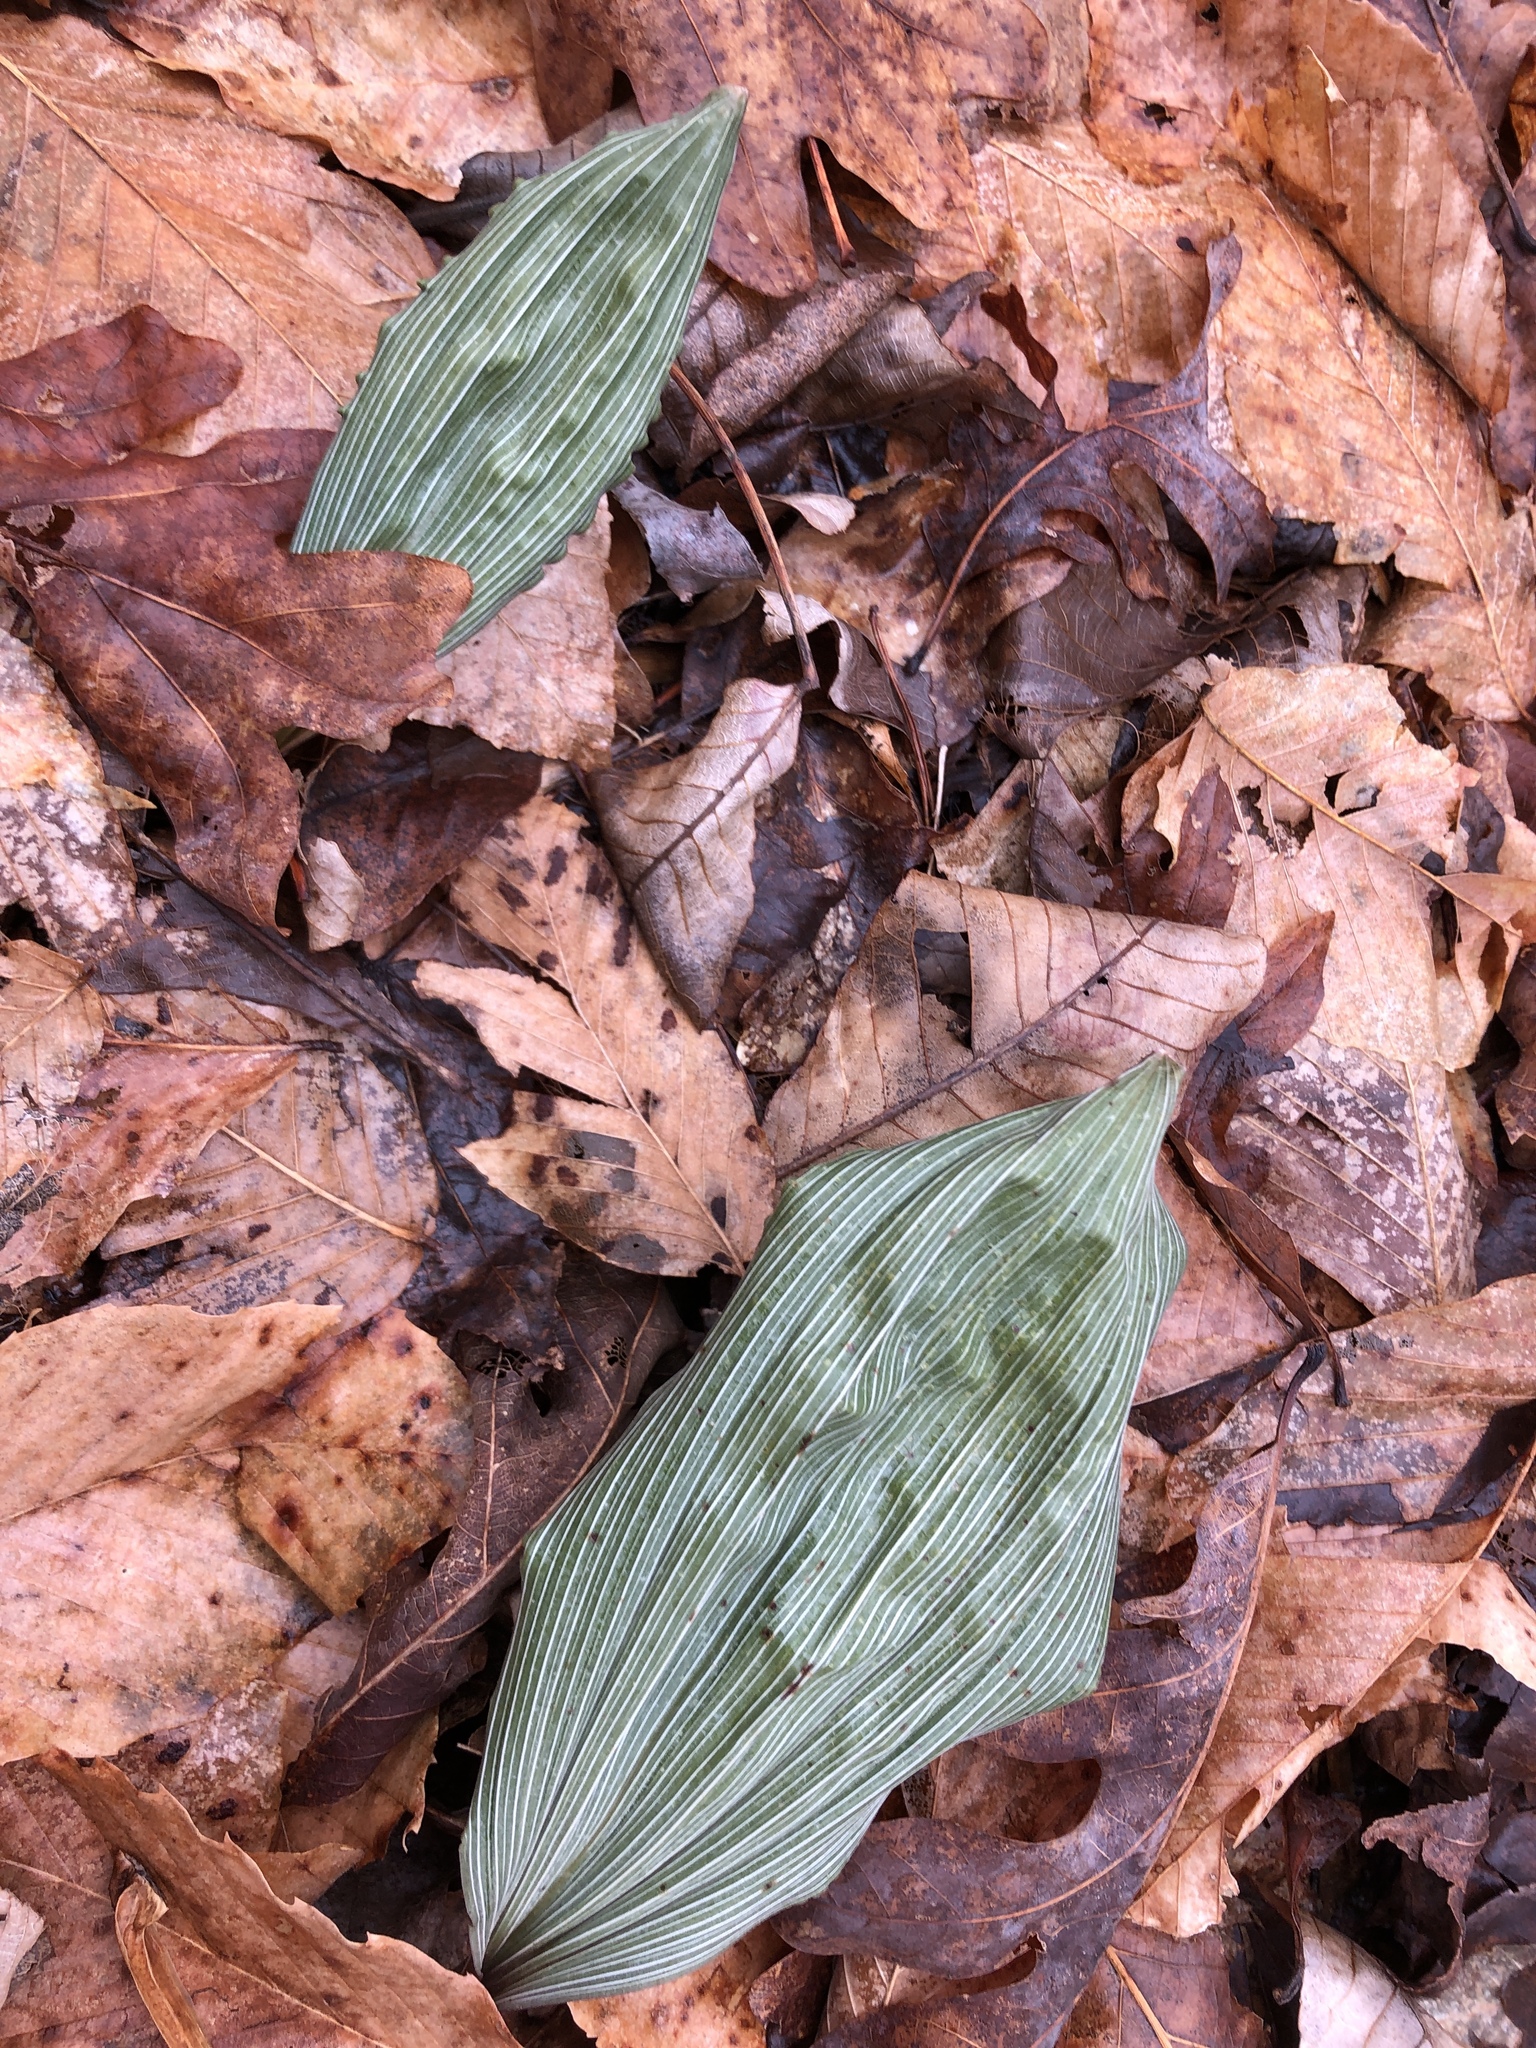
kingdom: Plantae
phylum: Tracheophyta
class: Liliopsida
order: Asparagales
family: Orchidaceae
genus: Aplectrum
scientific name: Aplectrum hyemale
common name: Adam-and-eve
